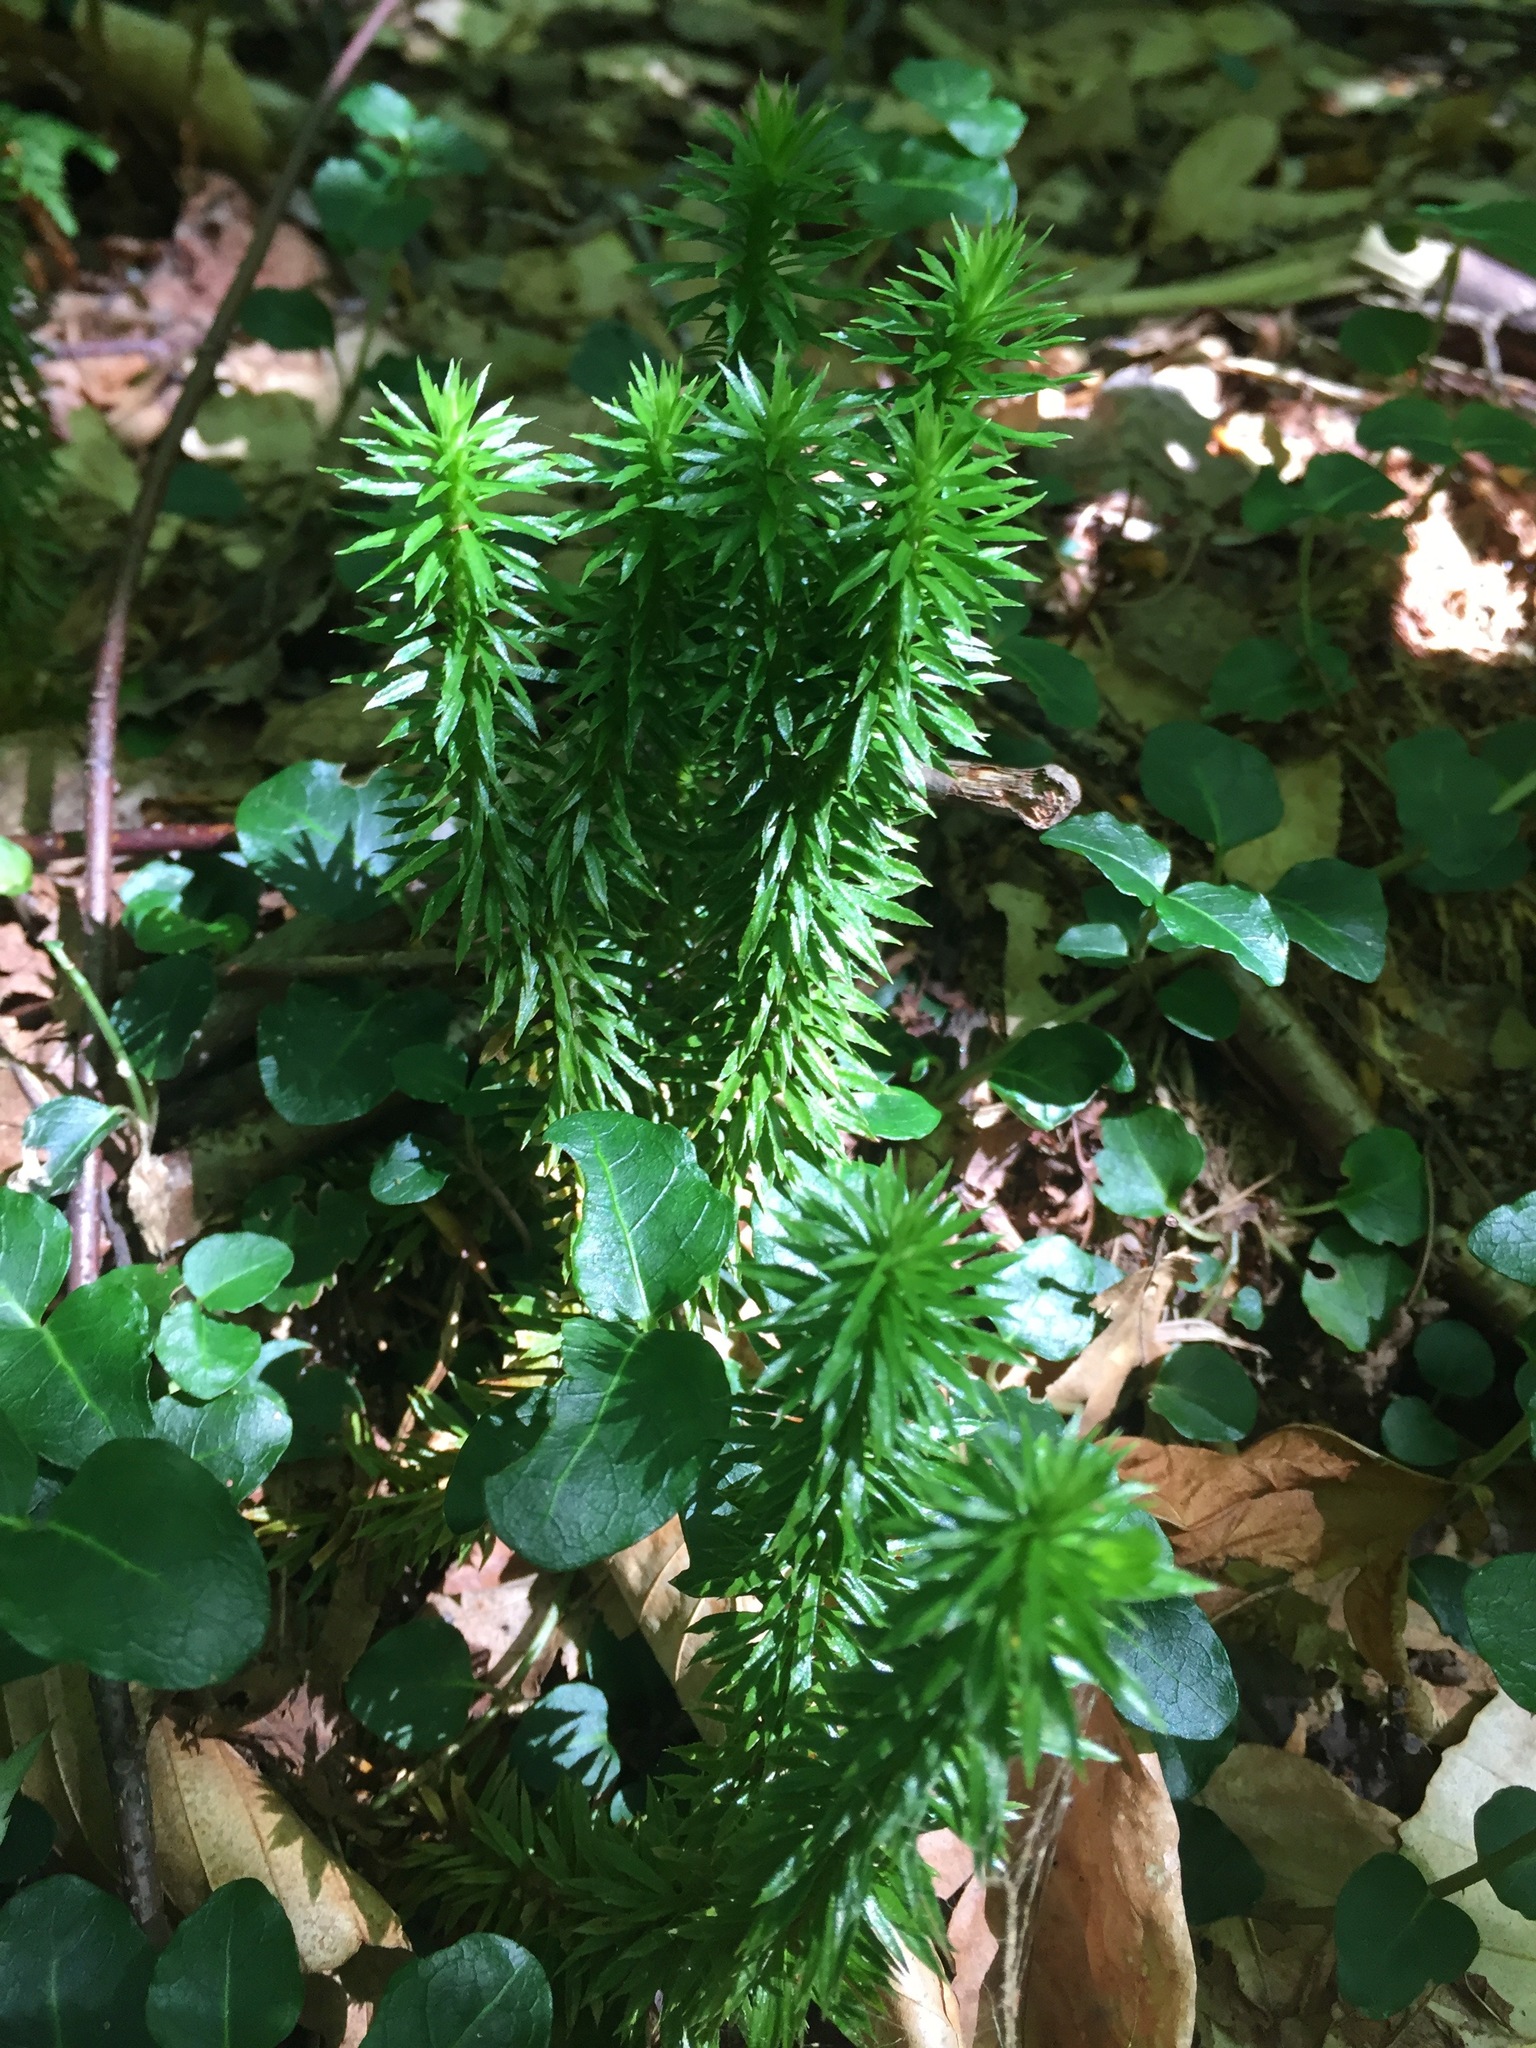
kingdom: Plantae
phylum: Tracheophyta
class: Lycopodiopsida
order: Lycopodiales
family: Lycopodiaceae
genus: Huperzia
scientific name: Huperzia lucidula
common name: Shining clubmoss
